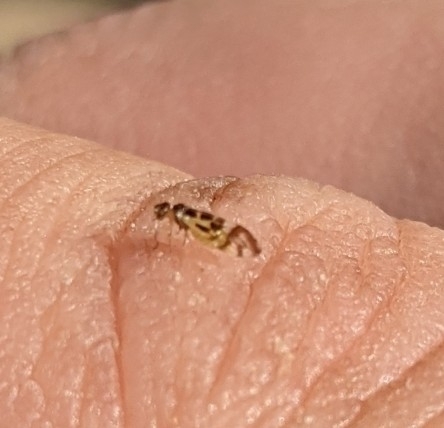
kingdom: Animalia
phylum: Arthropoda
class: Insecta
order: Psocodea
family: Stenopsocidae
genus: Graphopsocus
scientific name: Graphopsocus cruciatus
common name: Lizard bark louse
